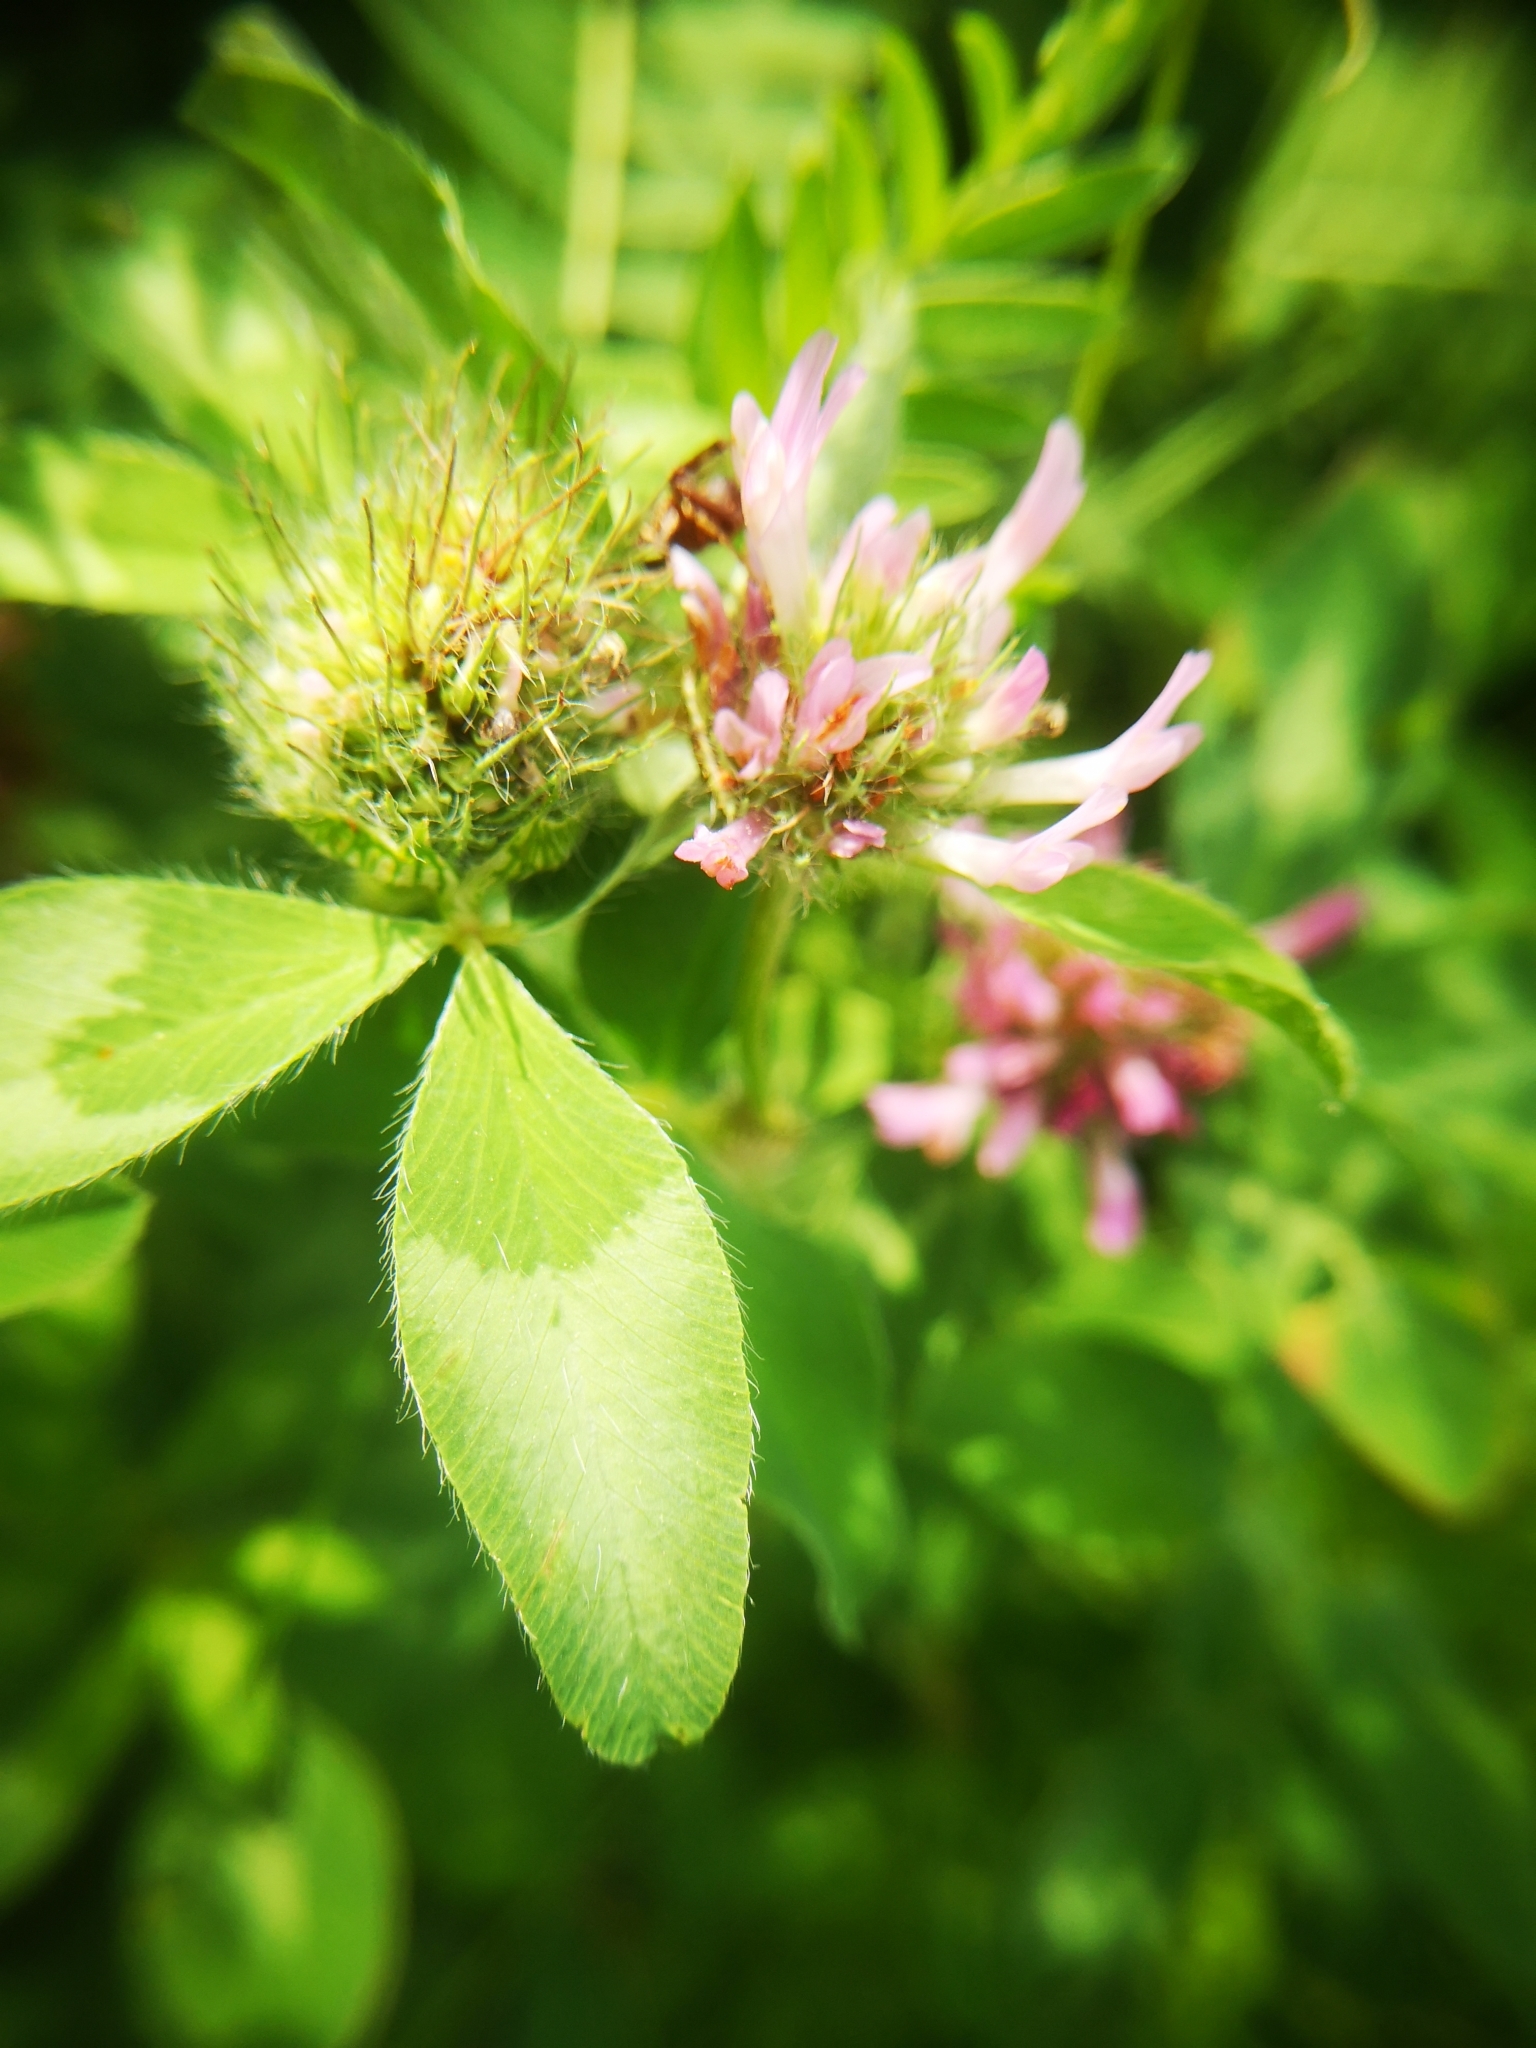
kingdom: Plantae
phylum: Tracheophyta
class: Magnoliopsida
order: Fabales
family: Fabaceae
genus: Trifolium
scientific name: Trifolium pratense
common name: Red clover
